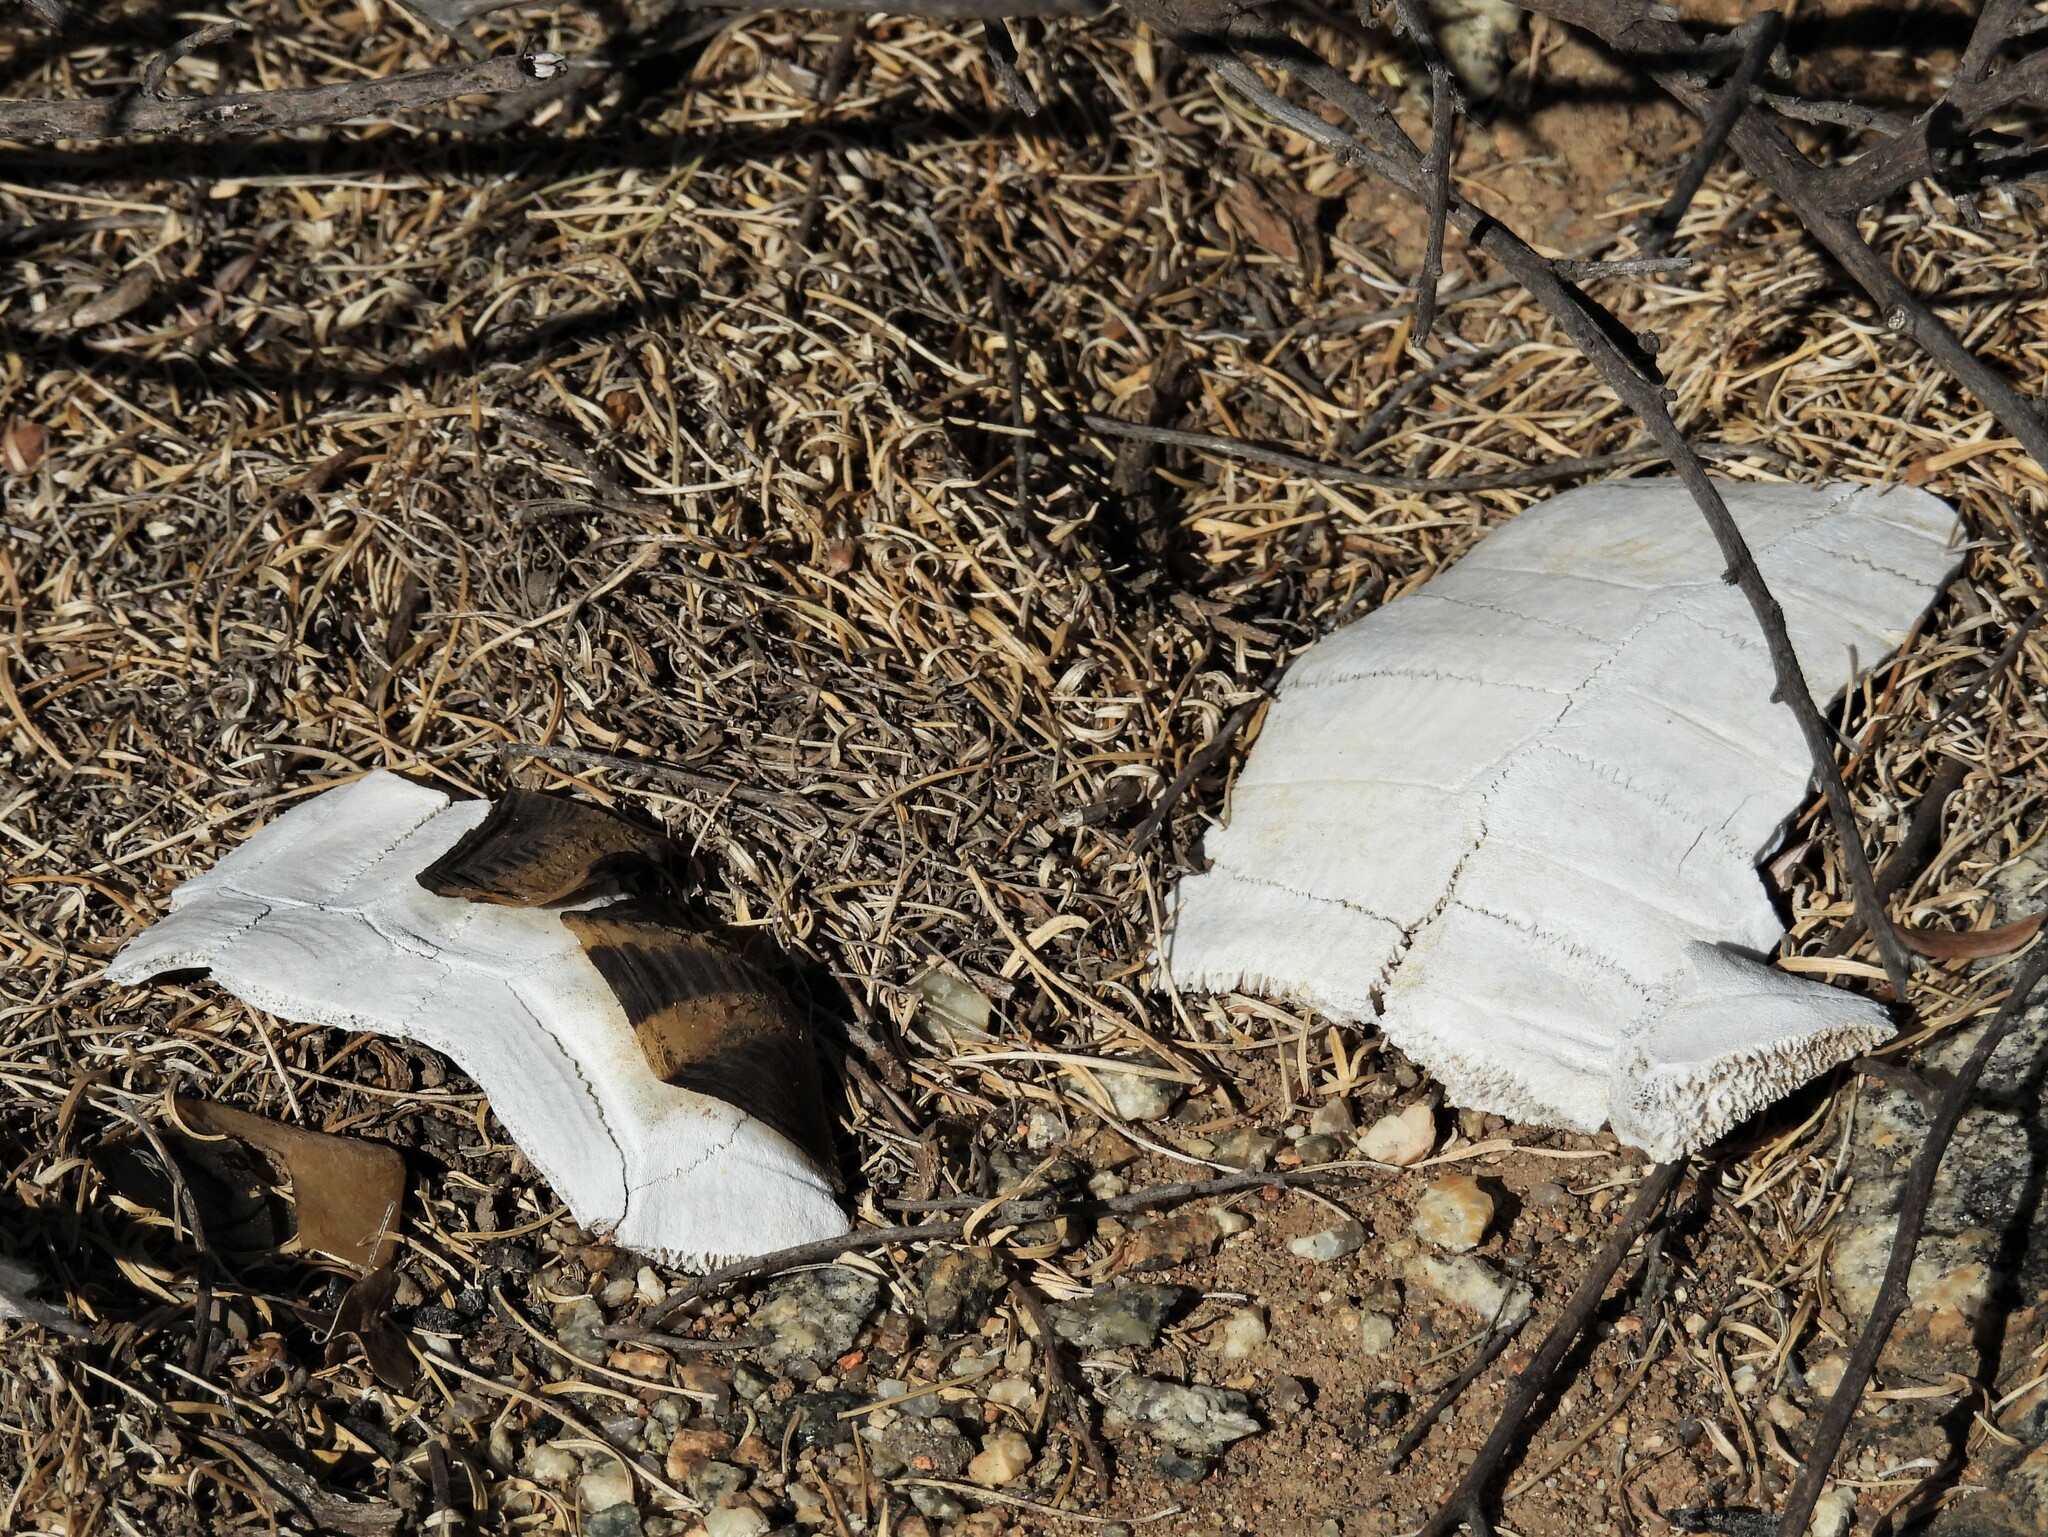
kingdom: Animalia
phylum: Chordata
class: Testudines
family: Testudinidae
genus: Chersina
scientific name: Chersina angulata
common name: South african bowsprit tortoise
